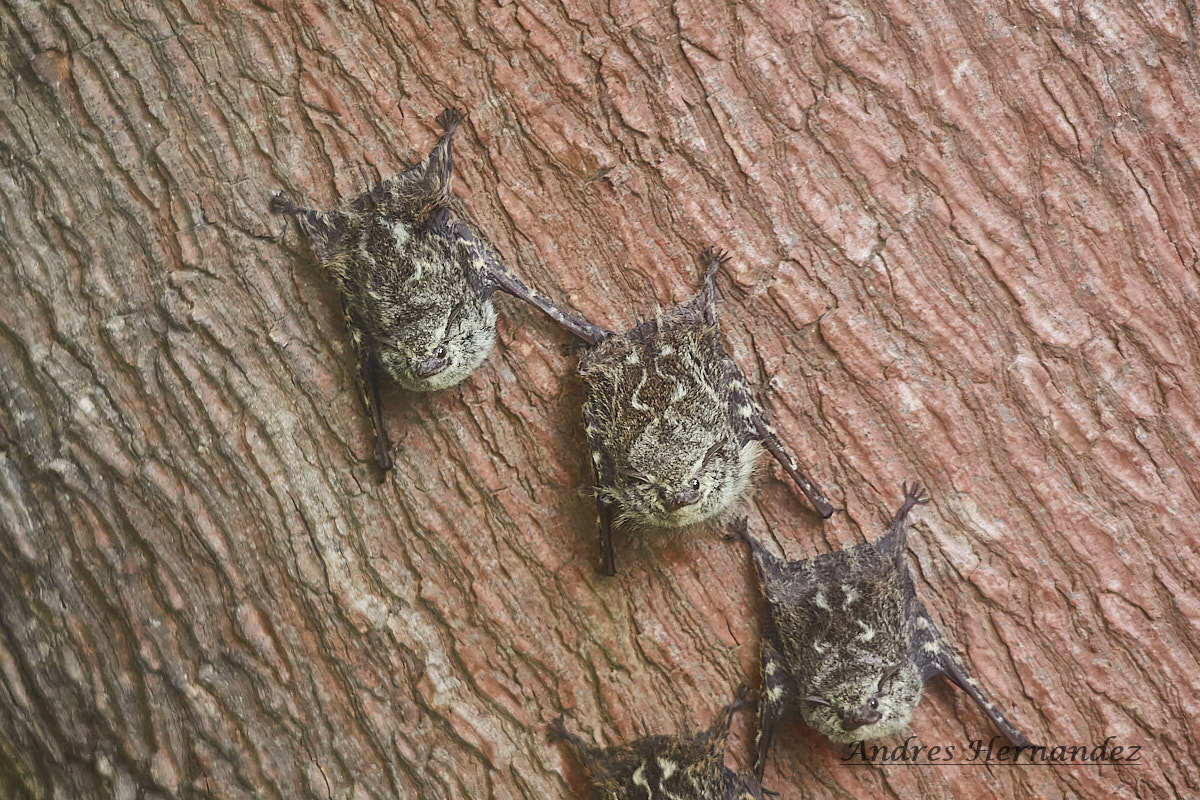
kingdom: Animalia
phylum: Chordata
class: Mammalia
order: Chiroptera
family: Emballonuridae
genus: Rhynchonycteris
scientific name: Rhynchonycteris naso
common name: Proboscis bat
